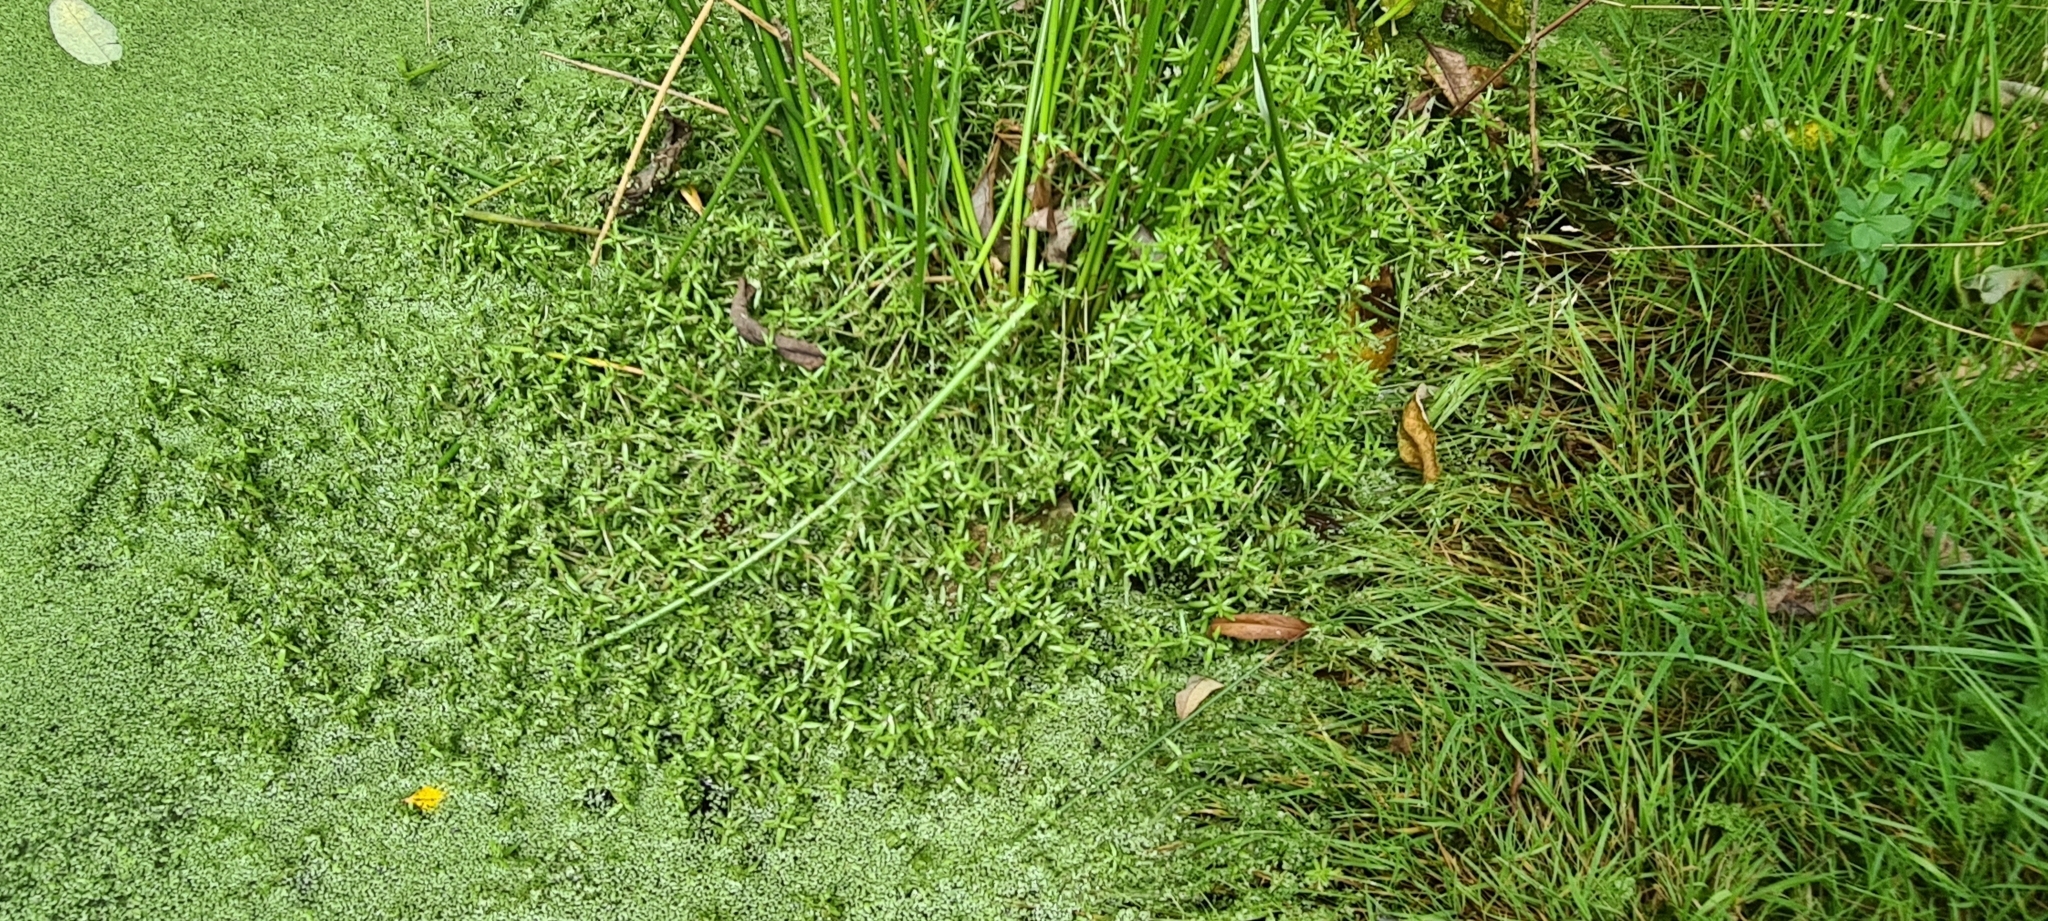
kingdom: Plantae
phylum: Tracheophyta
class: Magnoliopsida
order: Saxifragales
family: Crassulaceae
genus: Crassula
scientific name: Crassula helmsii
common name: New zealand pigmyweed
